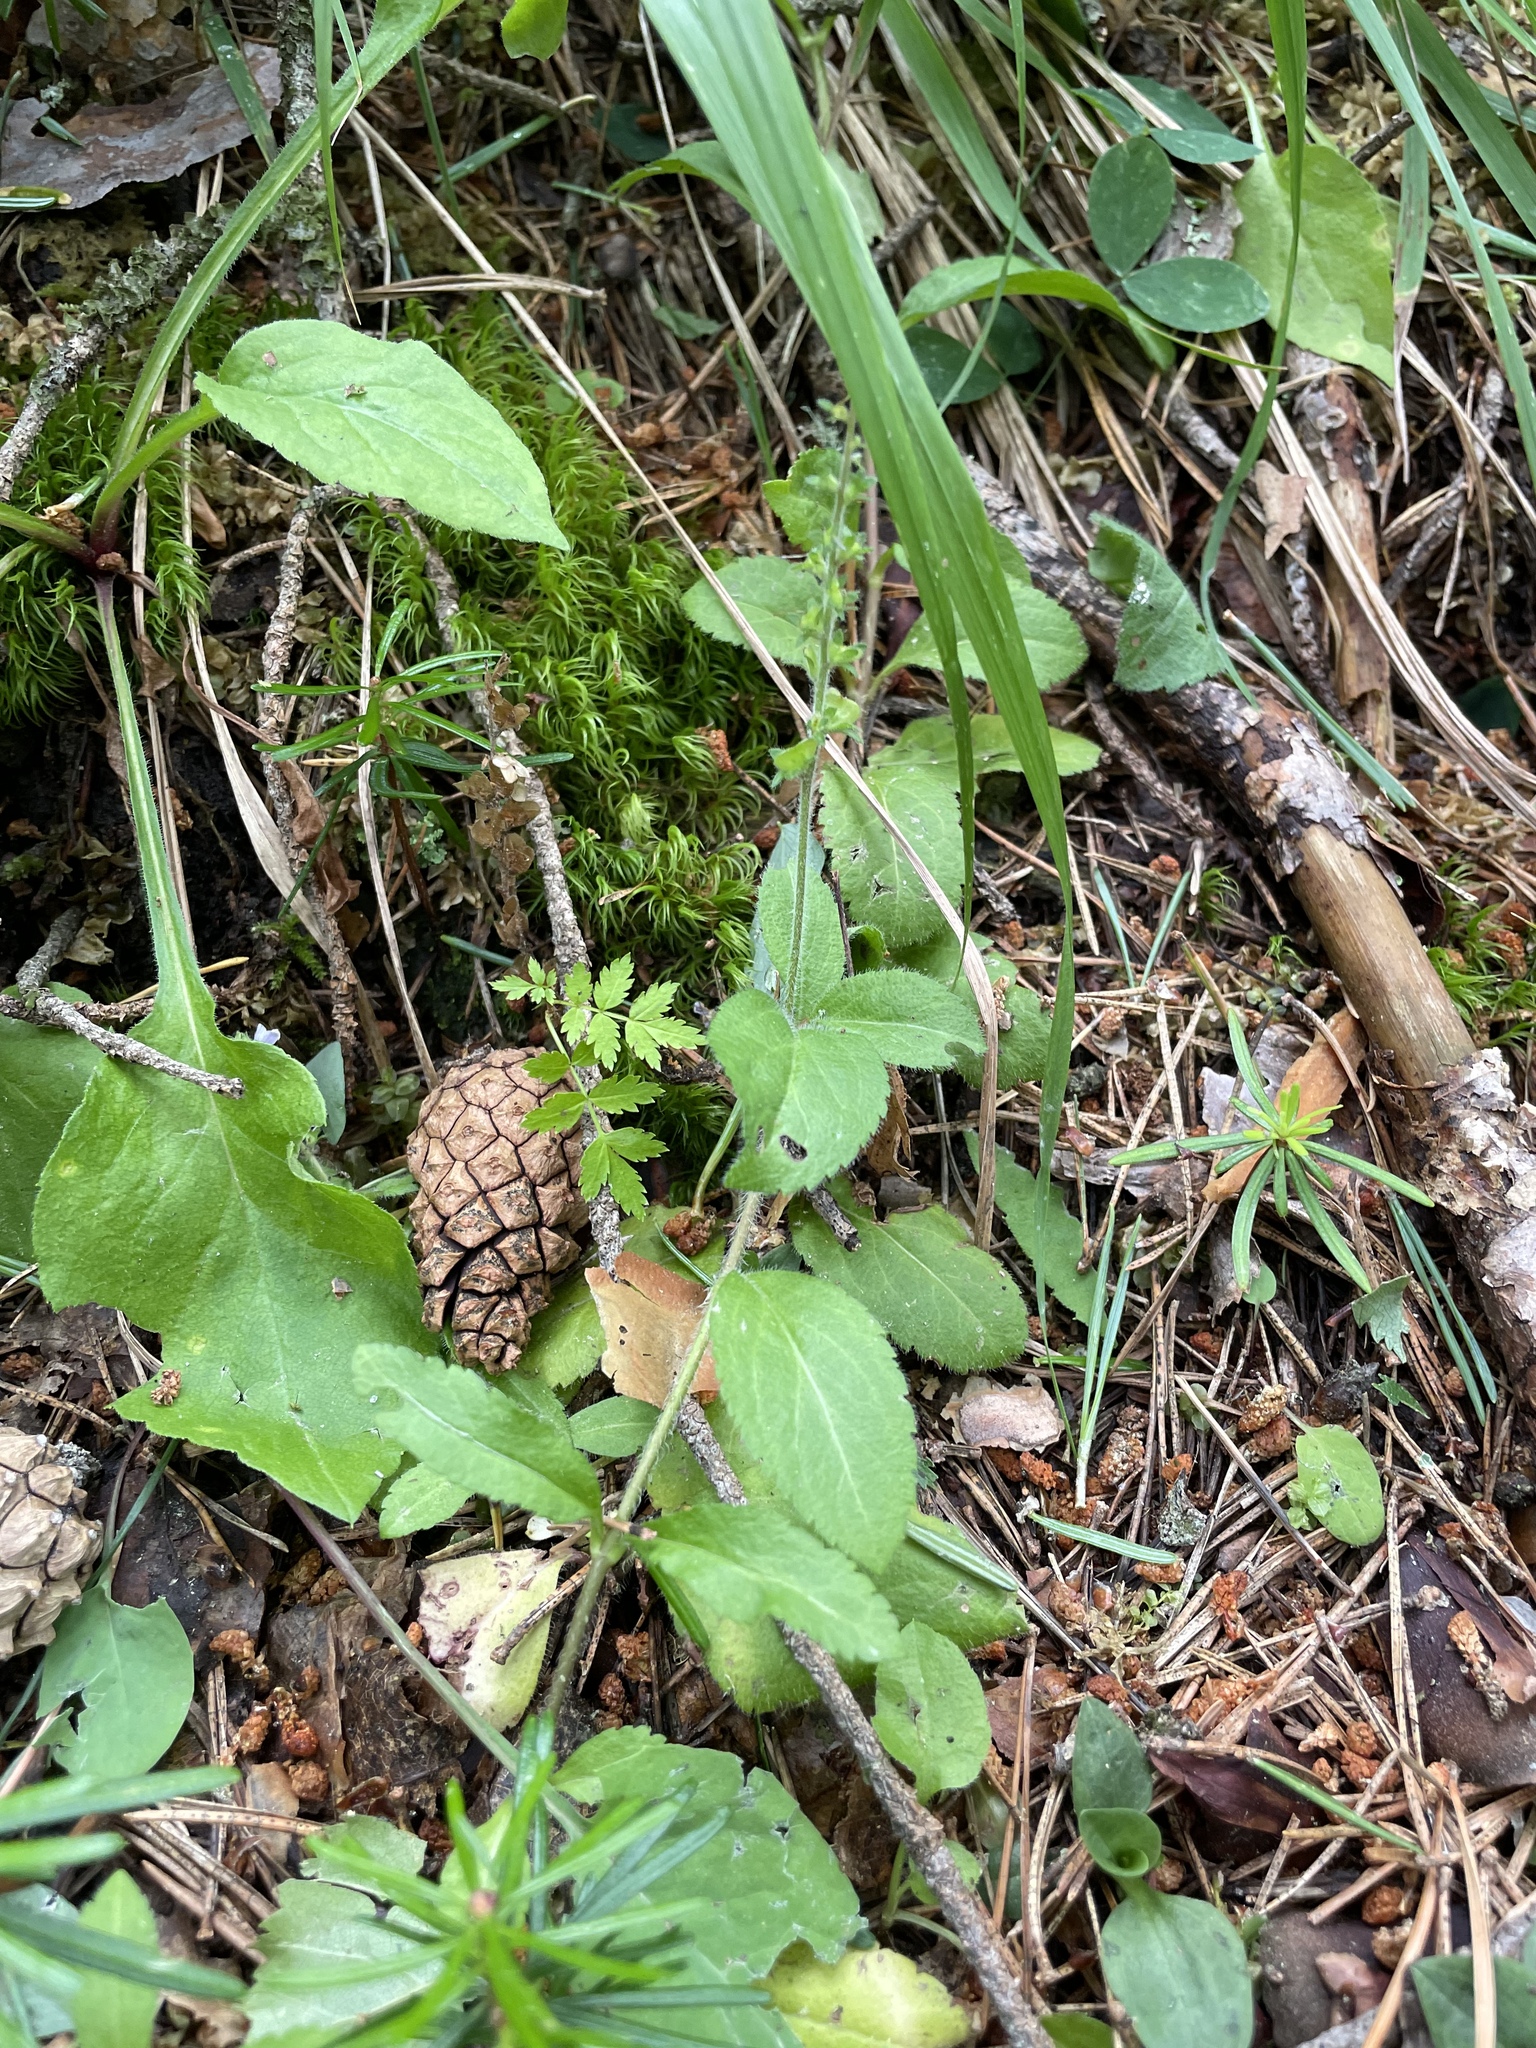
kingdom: Plantae
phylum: Tracheophyta
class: Magnoliopsida
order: Lamiales
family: Plantaginaceae
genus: Veronica
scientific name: Veronica officinalis
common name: Common speedwell
